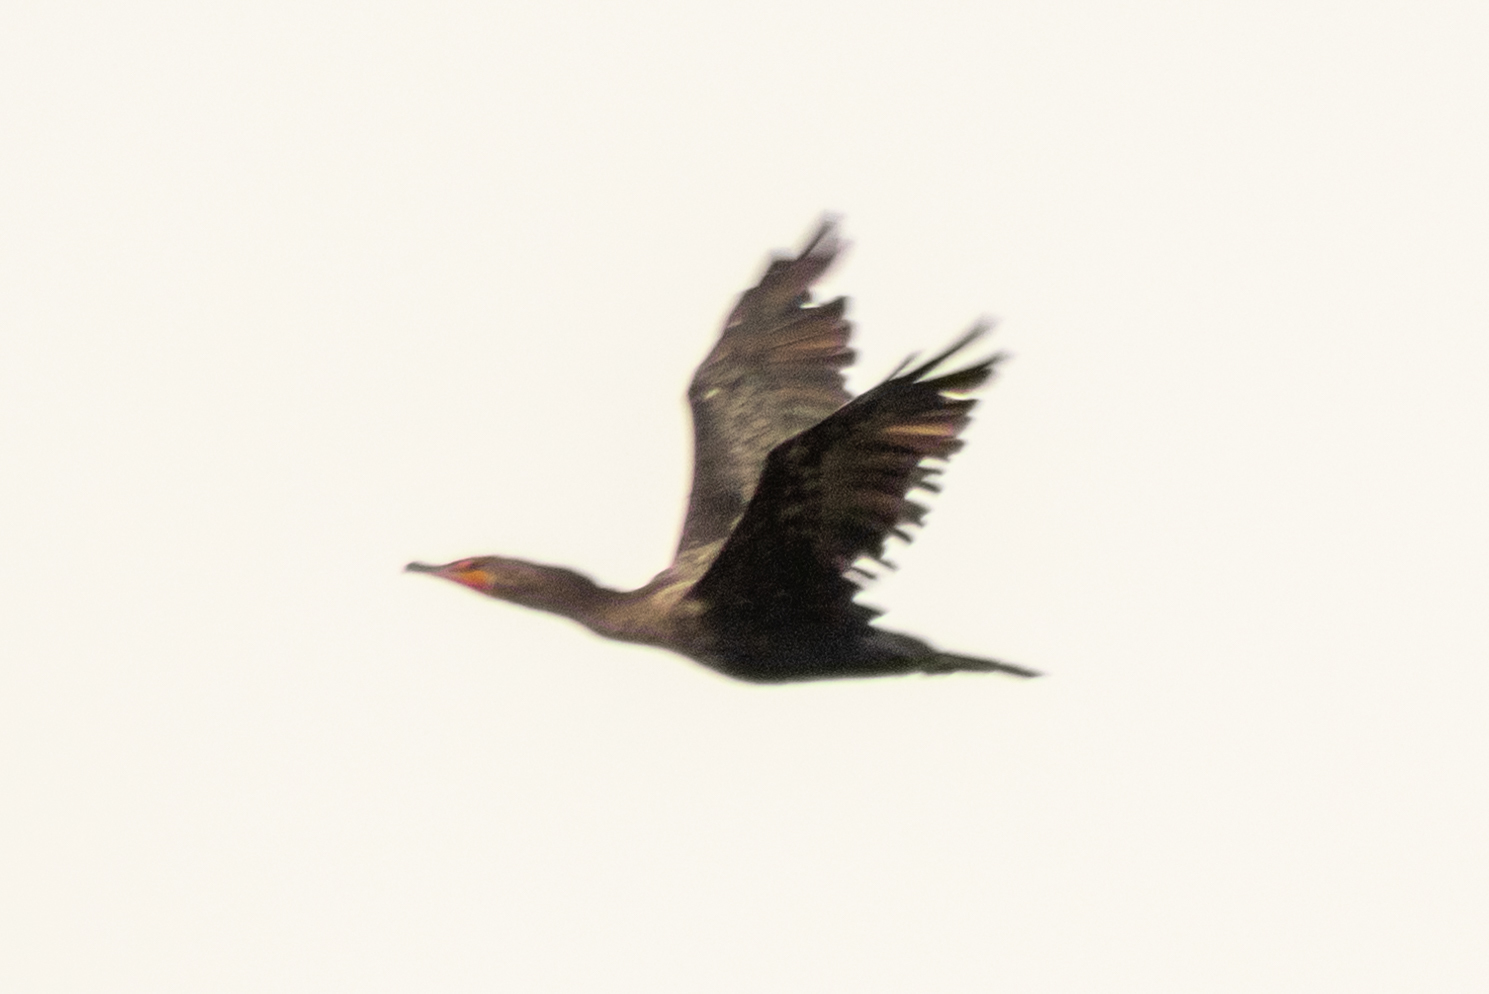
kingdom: Animalia
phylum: Chordata
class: Aves
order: Suliformes
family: Phalacrocoracidae
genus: Phalacrocorax
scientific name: Phalacrocorax auritus
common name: Double-crested cormorant
